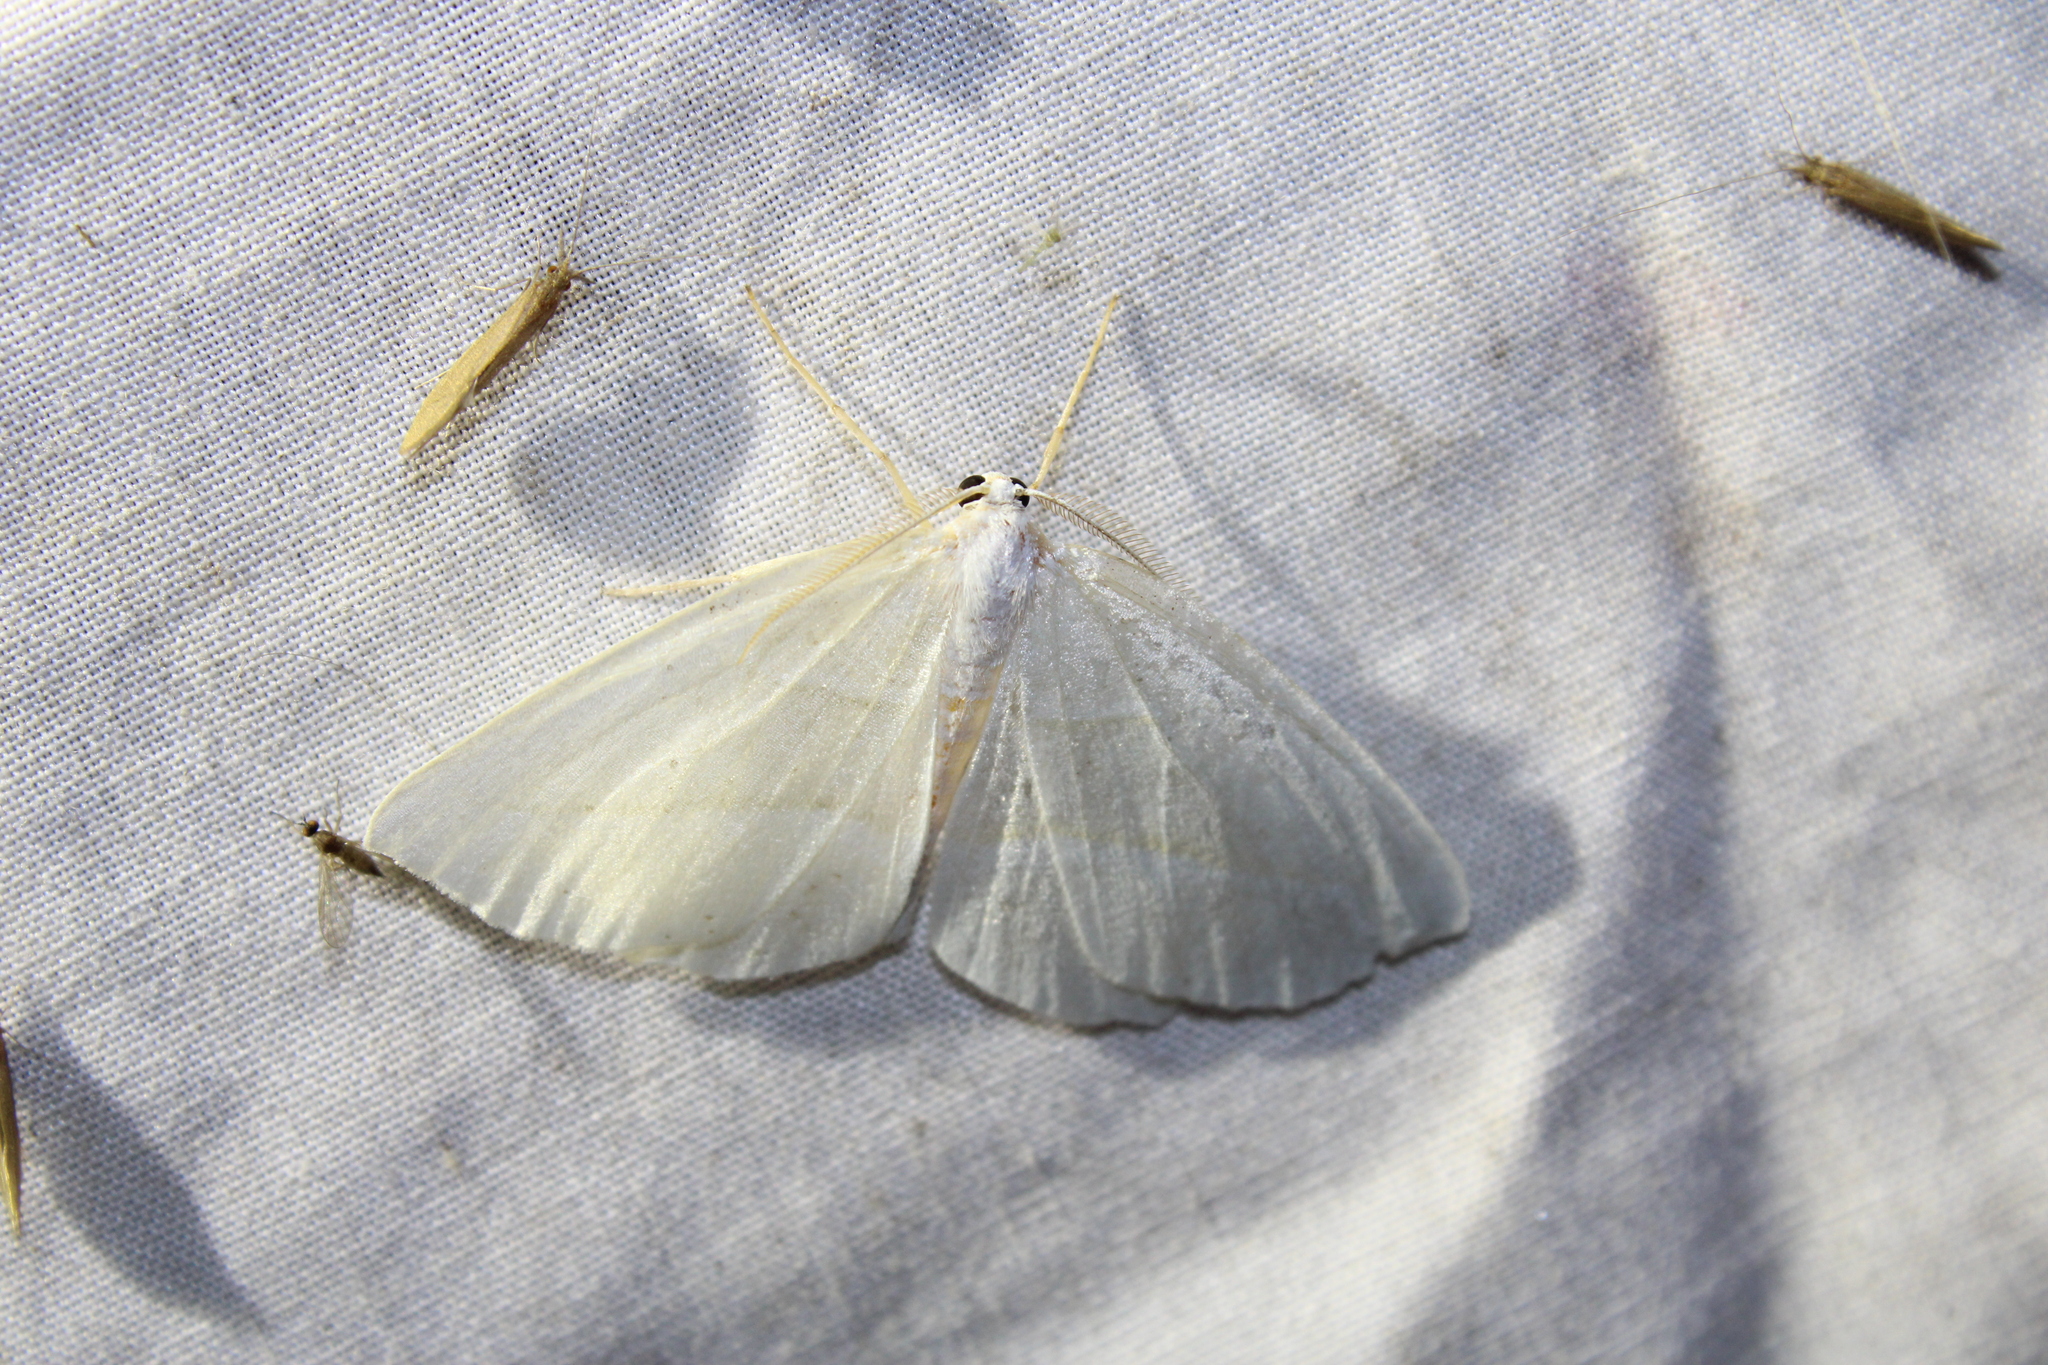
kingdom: Animalia
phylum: Arthropoda
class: Insecta
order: Lepidoptera
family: Geometridae
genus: Campaea
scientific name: Campaea perlata
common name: Fringed looper
